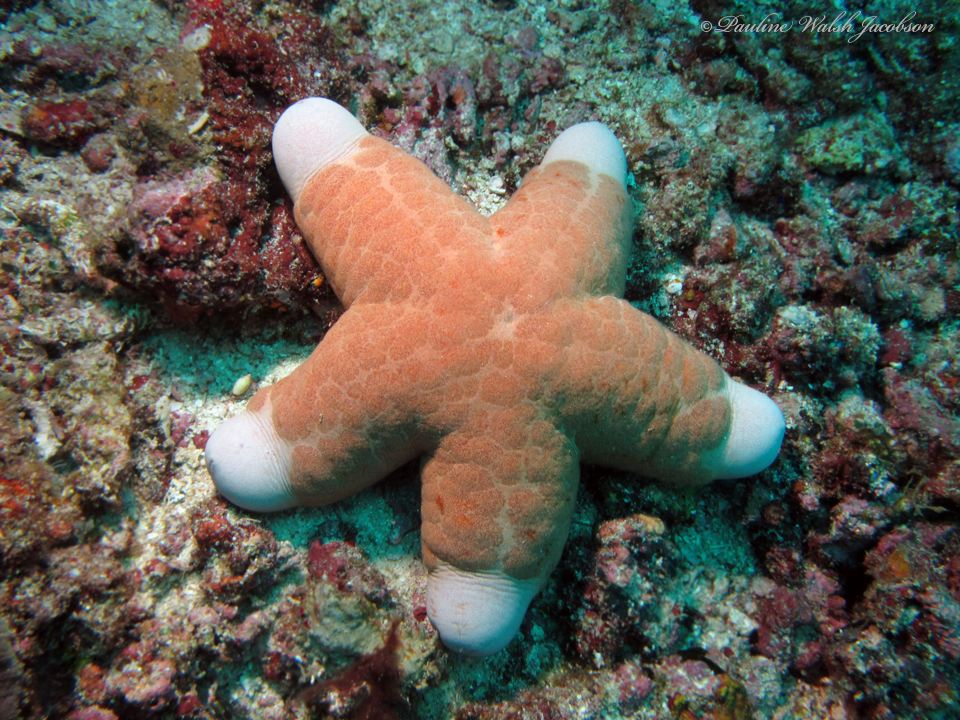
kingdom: Animalia
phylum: Echinodermata
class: Asteroidea
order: Valvatida
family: Oreasteridae
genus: Choriaster
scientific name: Choriaster granulatus
